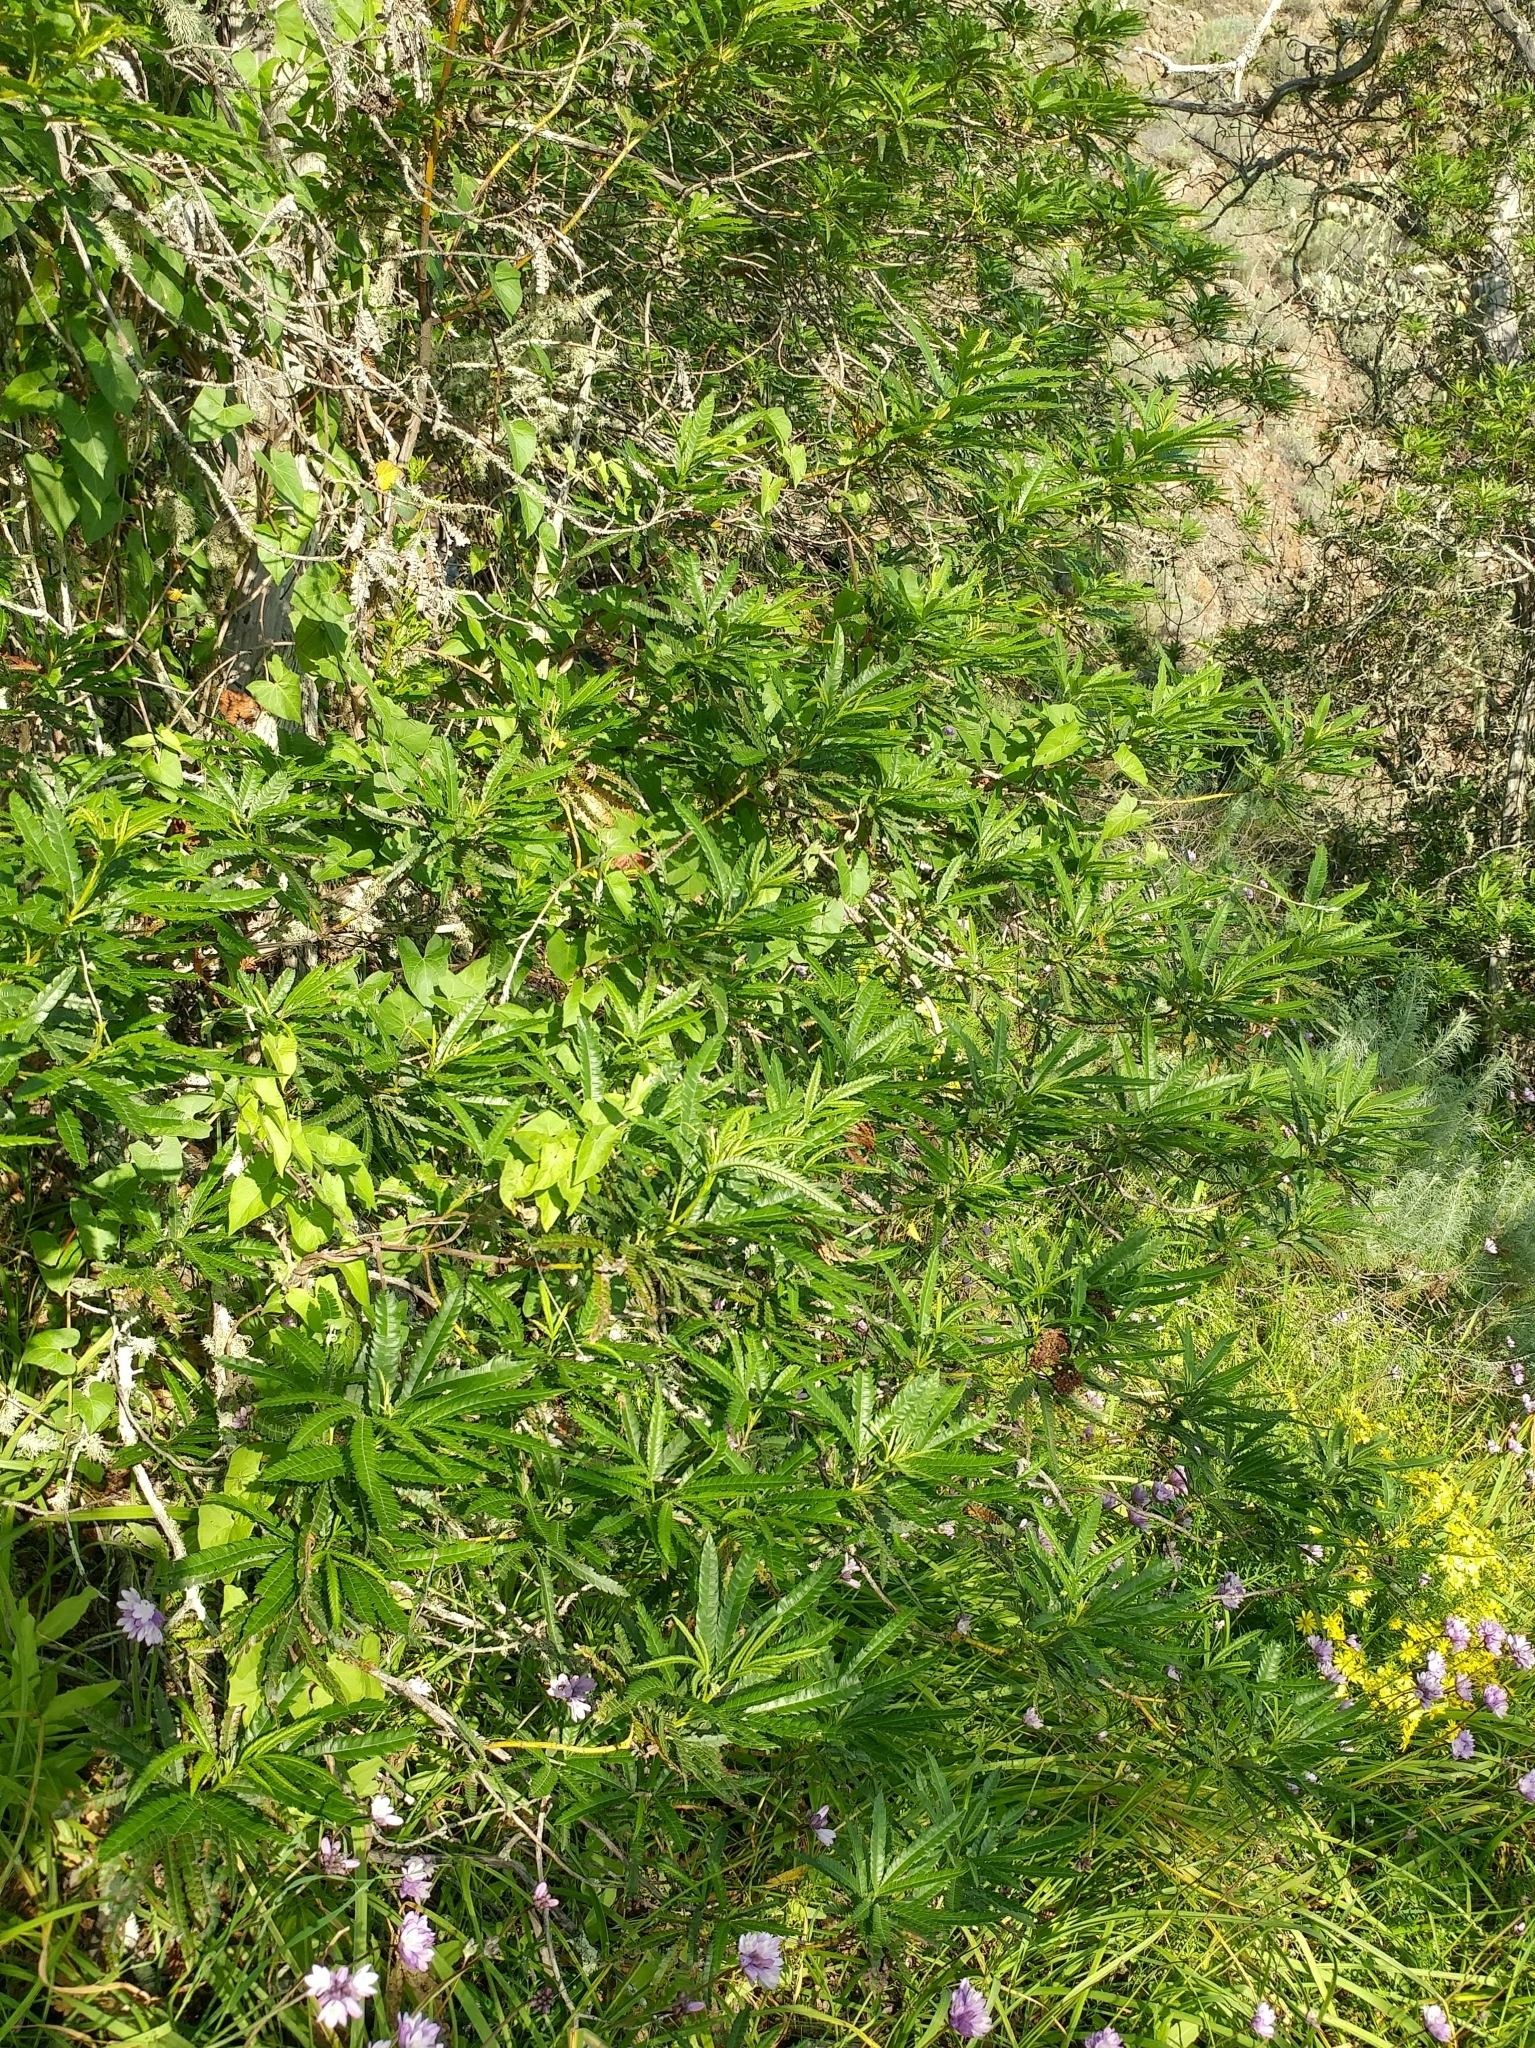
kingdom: Plantae
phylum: Tracheophyta
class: Magnoliopsida
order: Rosales
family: Rosaceae
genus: Lyonothamnus
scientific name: Lyonothamnus floribundus
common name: Catalina ironwood
